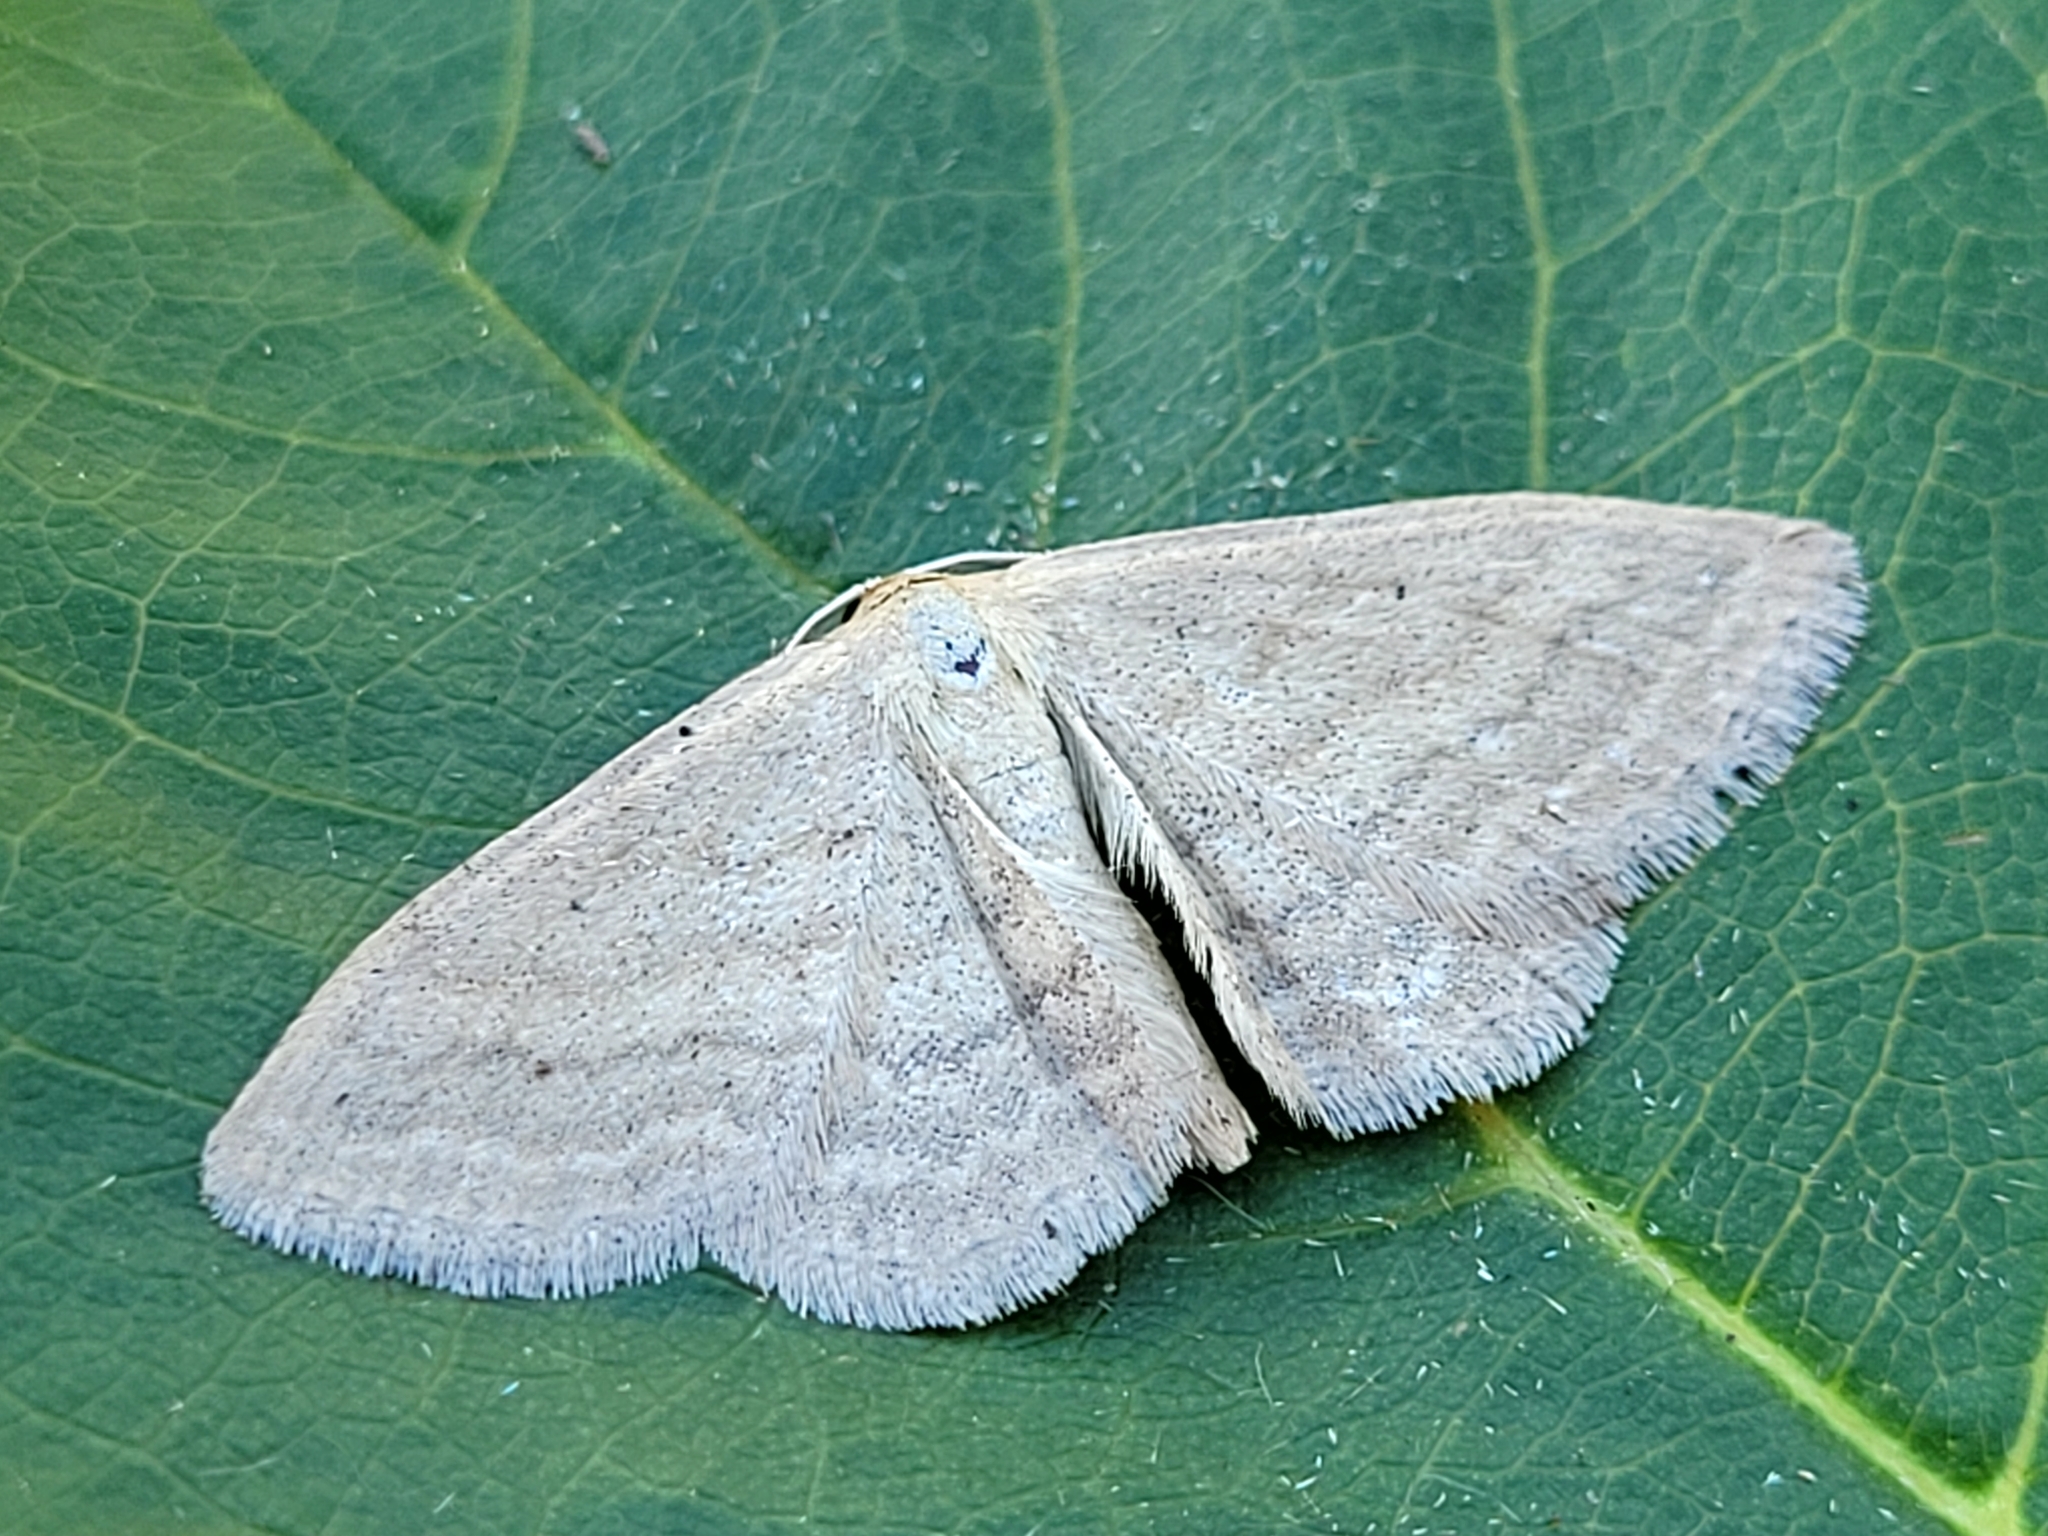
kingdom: Animalia
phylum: Arthropoda
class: Insecta
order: Lepidoptera
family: Geometridae
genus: Scopula
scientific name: Scopula inductata
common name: Soft-lined wave
